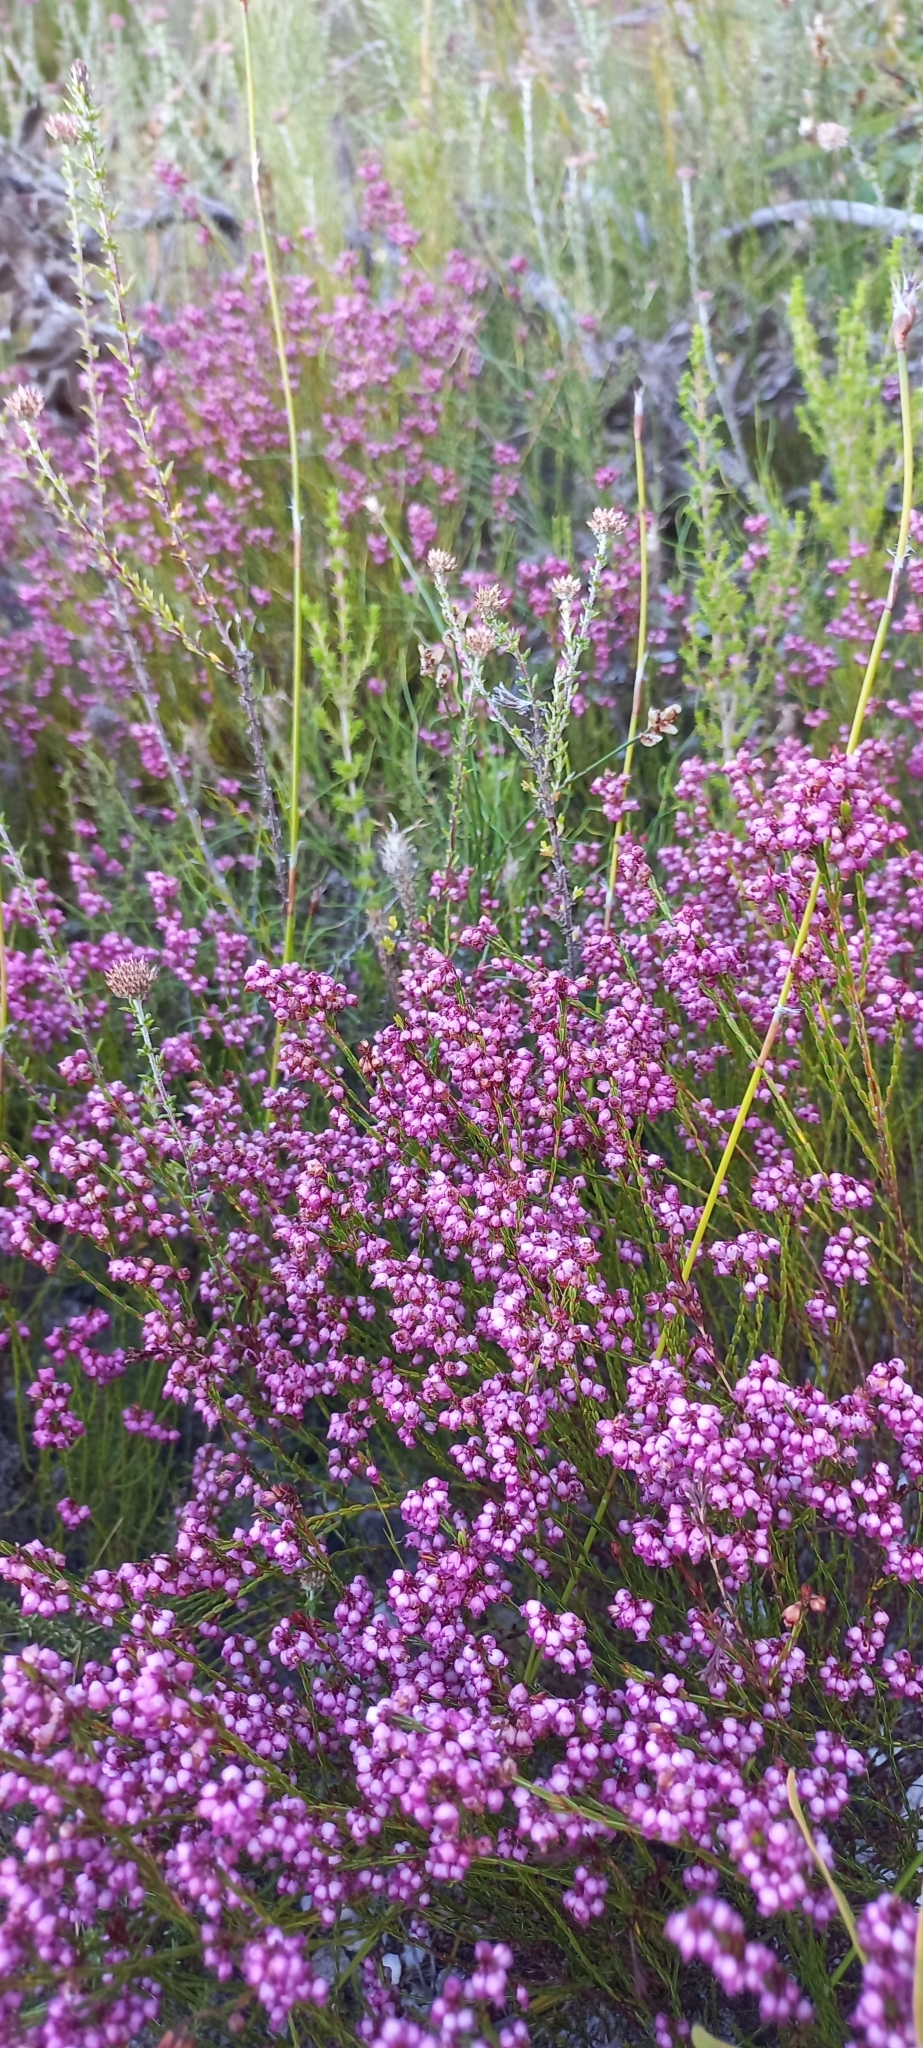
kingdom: Plantae
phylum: Tracheophyta
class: Magnoliopsida
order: Ericales
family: Ericaceae
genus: Erica
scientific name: Erica multumbellifera
